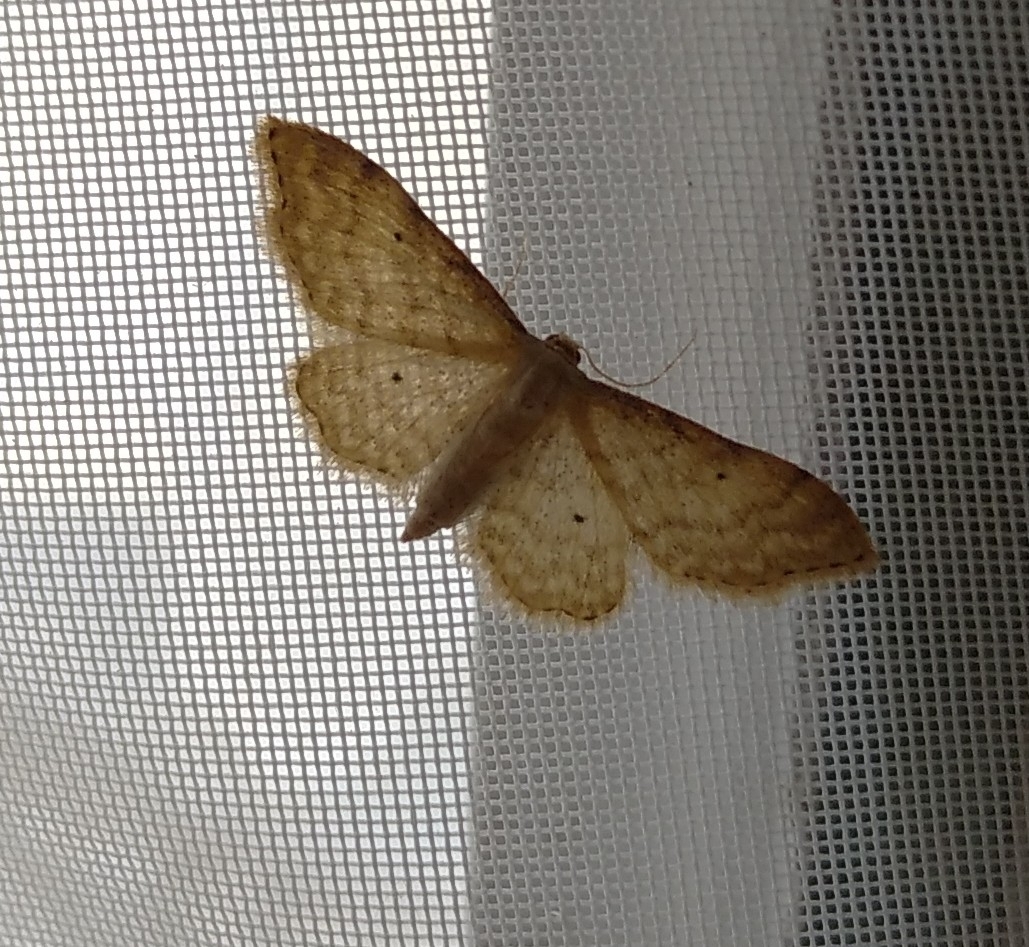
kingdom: Animalia
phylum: Arthropoda
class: Insecta
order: Lepidoptera
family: Geometridae
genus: Idaea
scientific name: Idaea fuscovenosa
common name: Dwarf cream wave
